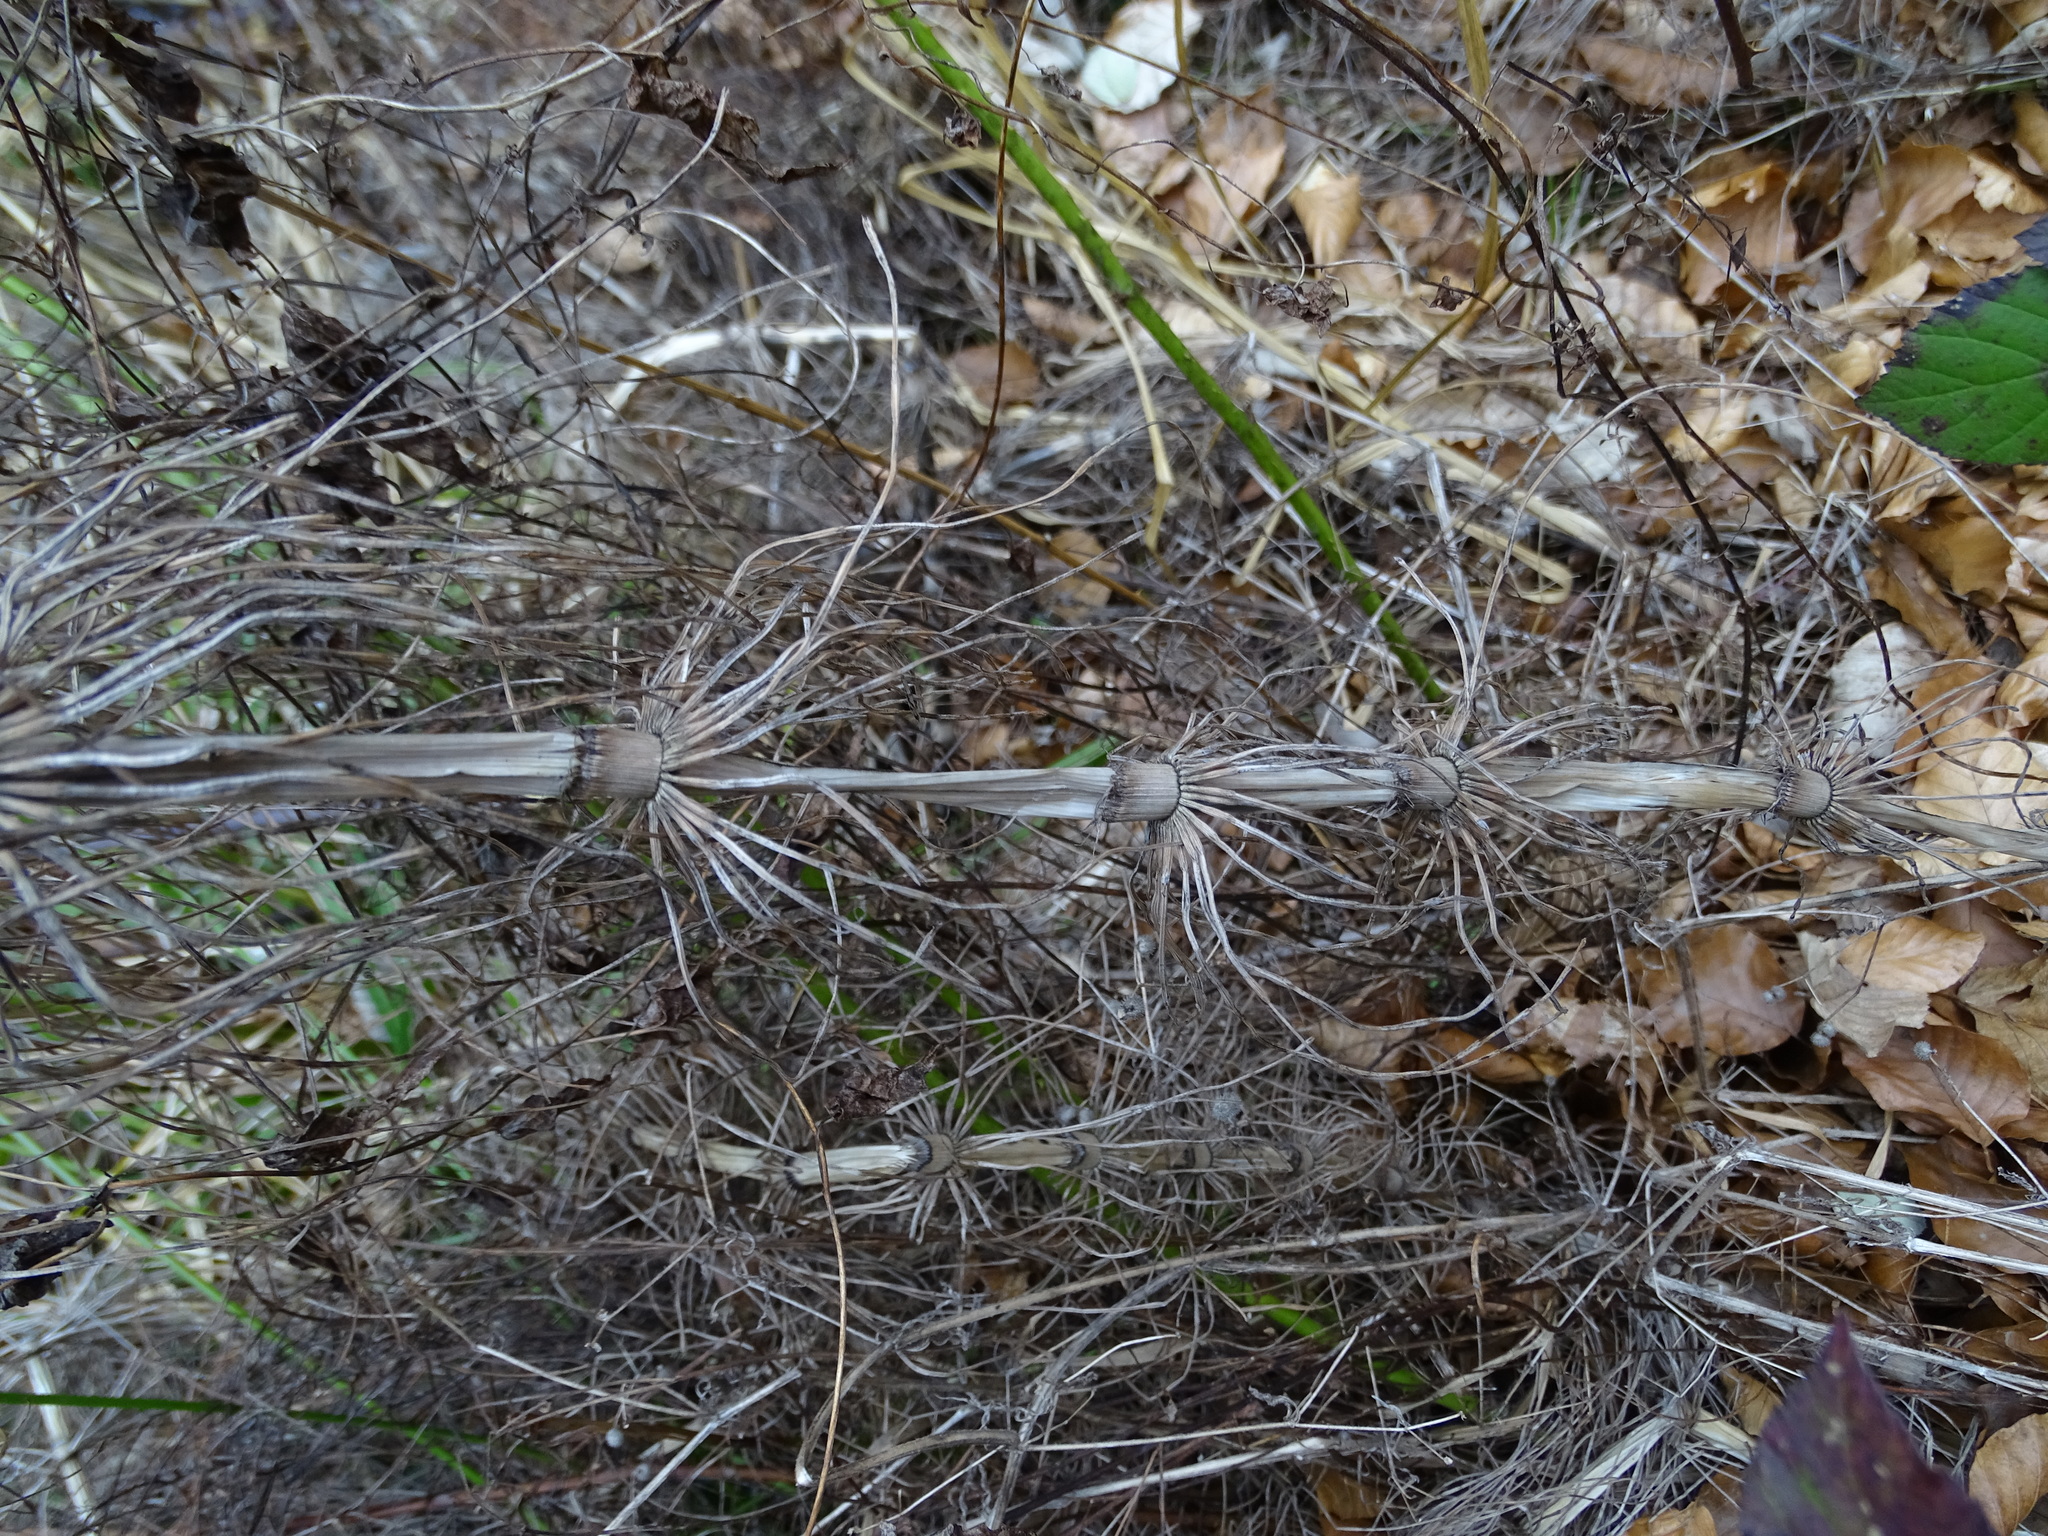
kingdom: Plantae
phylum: Tracheophyta
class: Polypodiopsida
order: Equisetales
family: Equisetaceae
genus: Equisetum
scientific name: Equisetum telmateia
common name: Great horsetail
